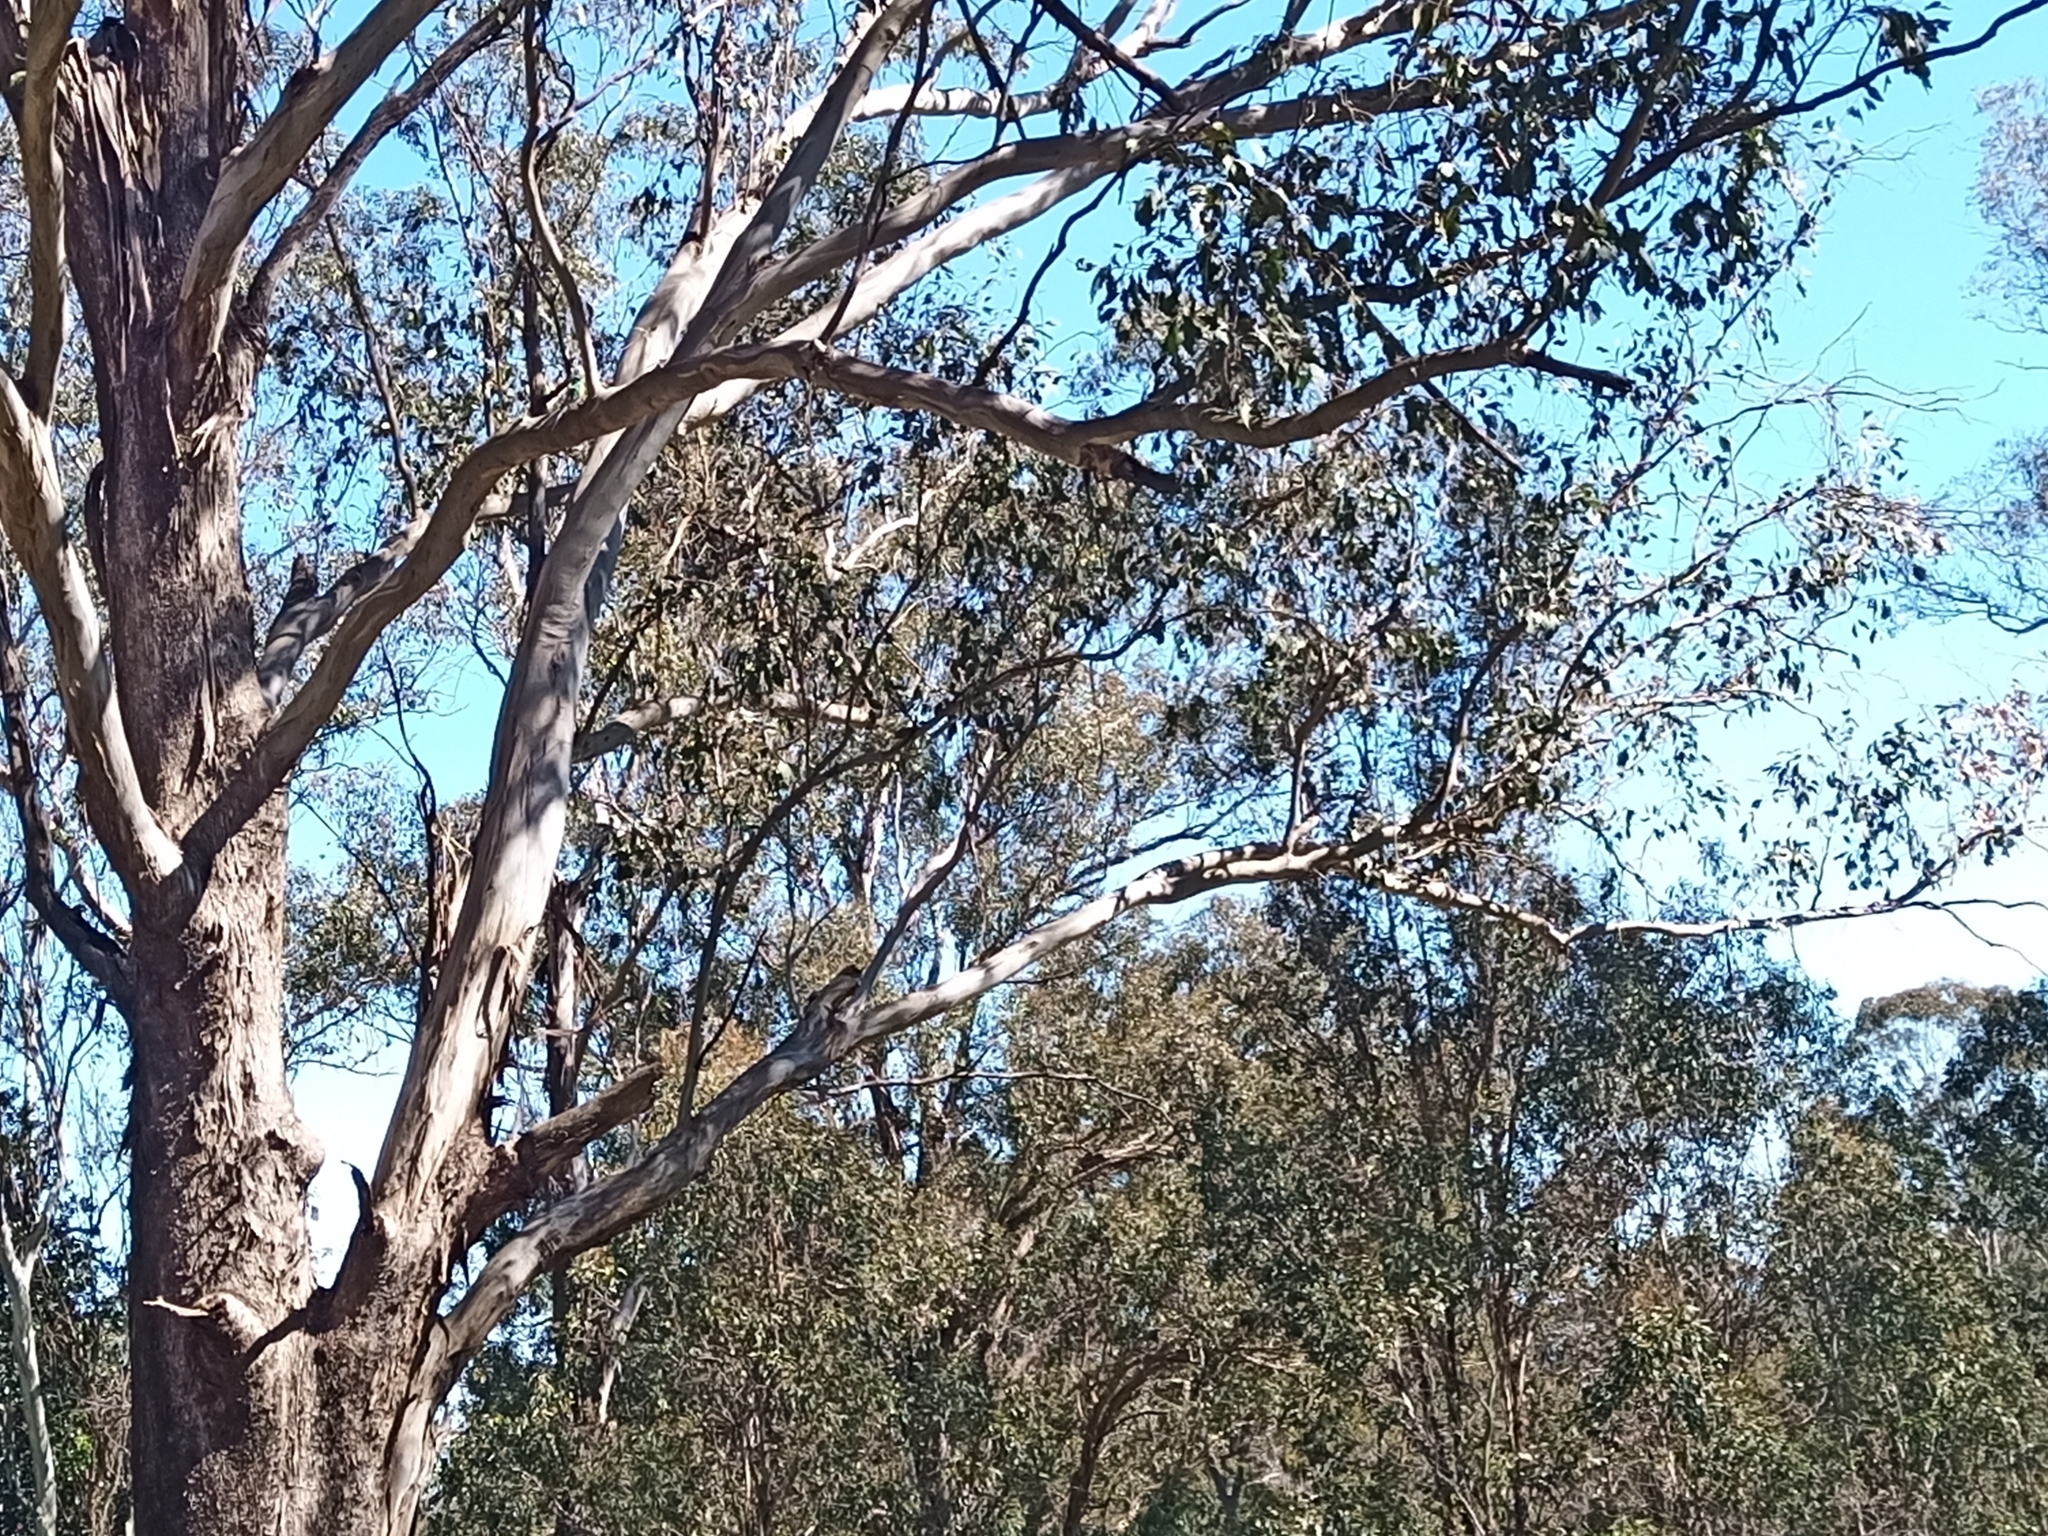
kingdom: Animalia
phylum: Chordata
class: Aves
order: Psittaciformes
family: Psittacidae
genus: Psephotus
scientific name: Psephotus haematonotus
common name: Red-rumped parrot
